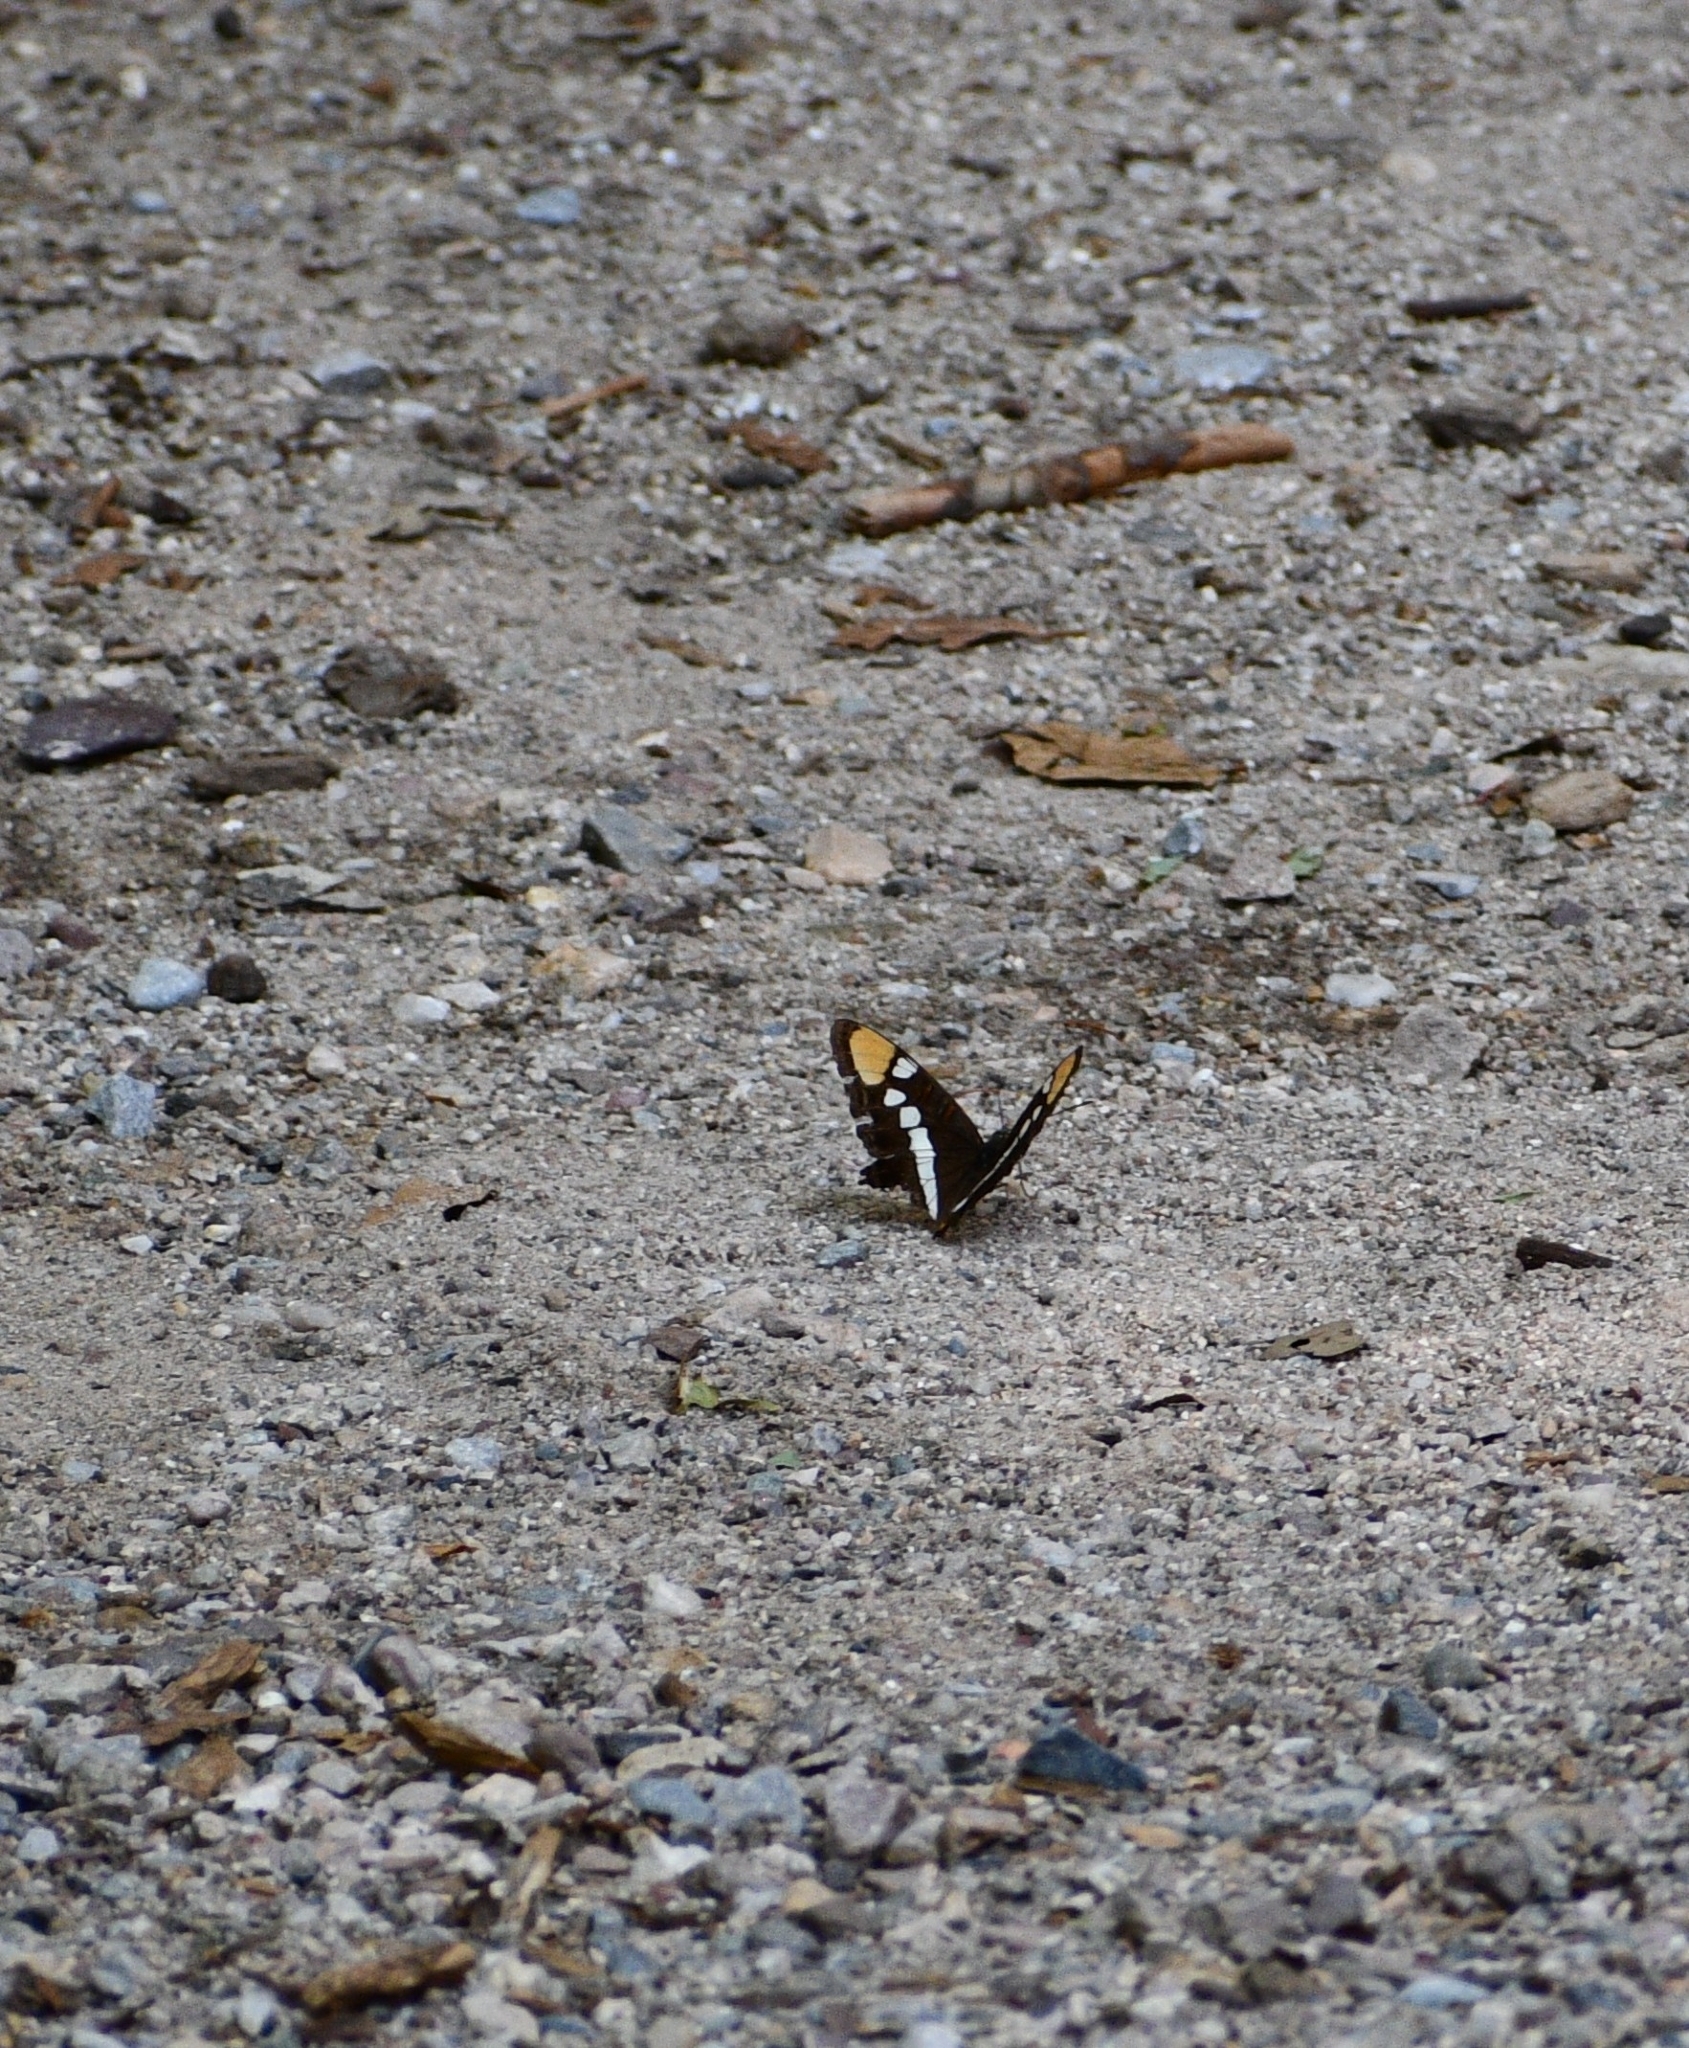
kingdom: Animalia
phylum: Arthropoda
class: Insecta
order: Lepidoptera
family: Nymphalidae
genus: Limenitis
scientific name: Limenitis bredowii
